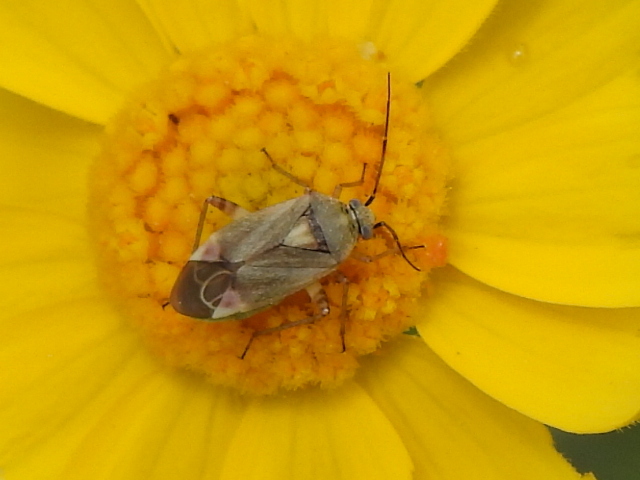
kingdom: Animalia
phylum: Arthropoda
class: Insecta
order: Hemiptera
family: Miridae
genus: Polymerus
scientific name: Polymerus basalis
